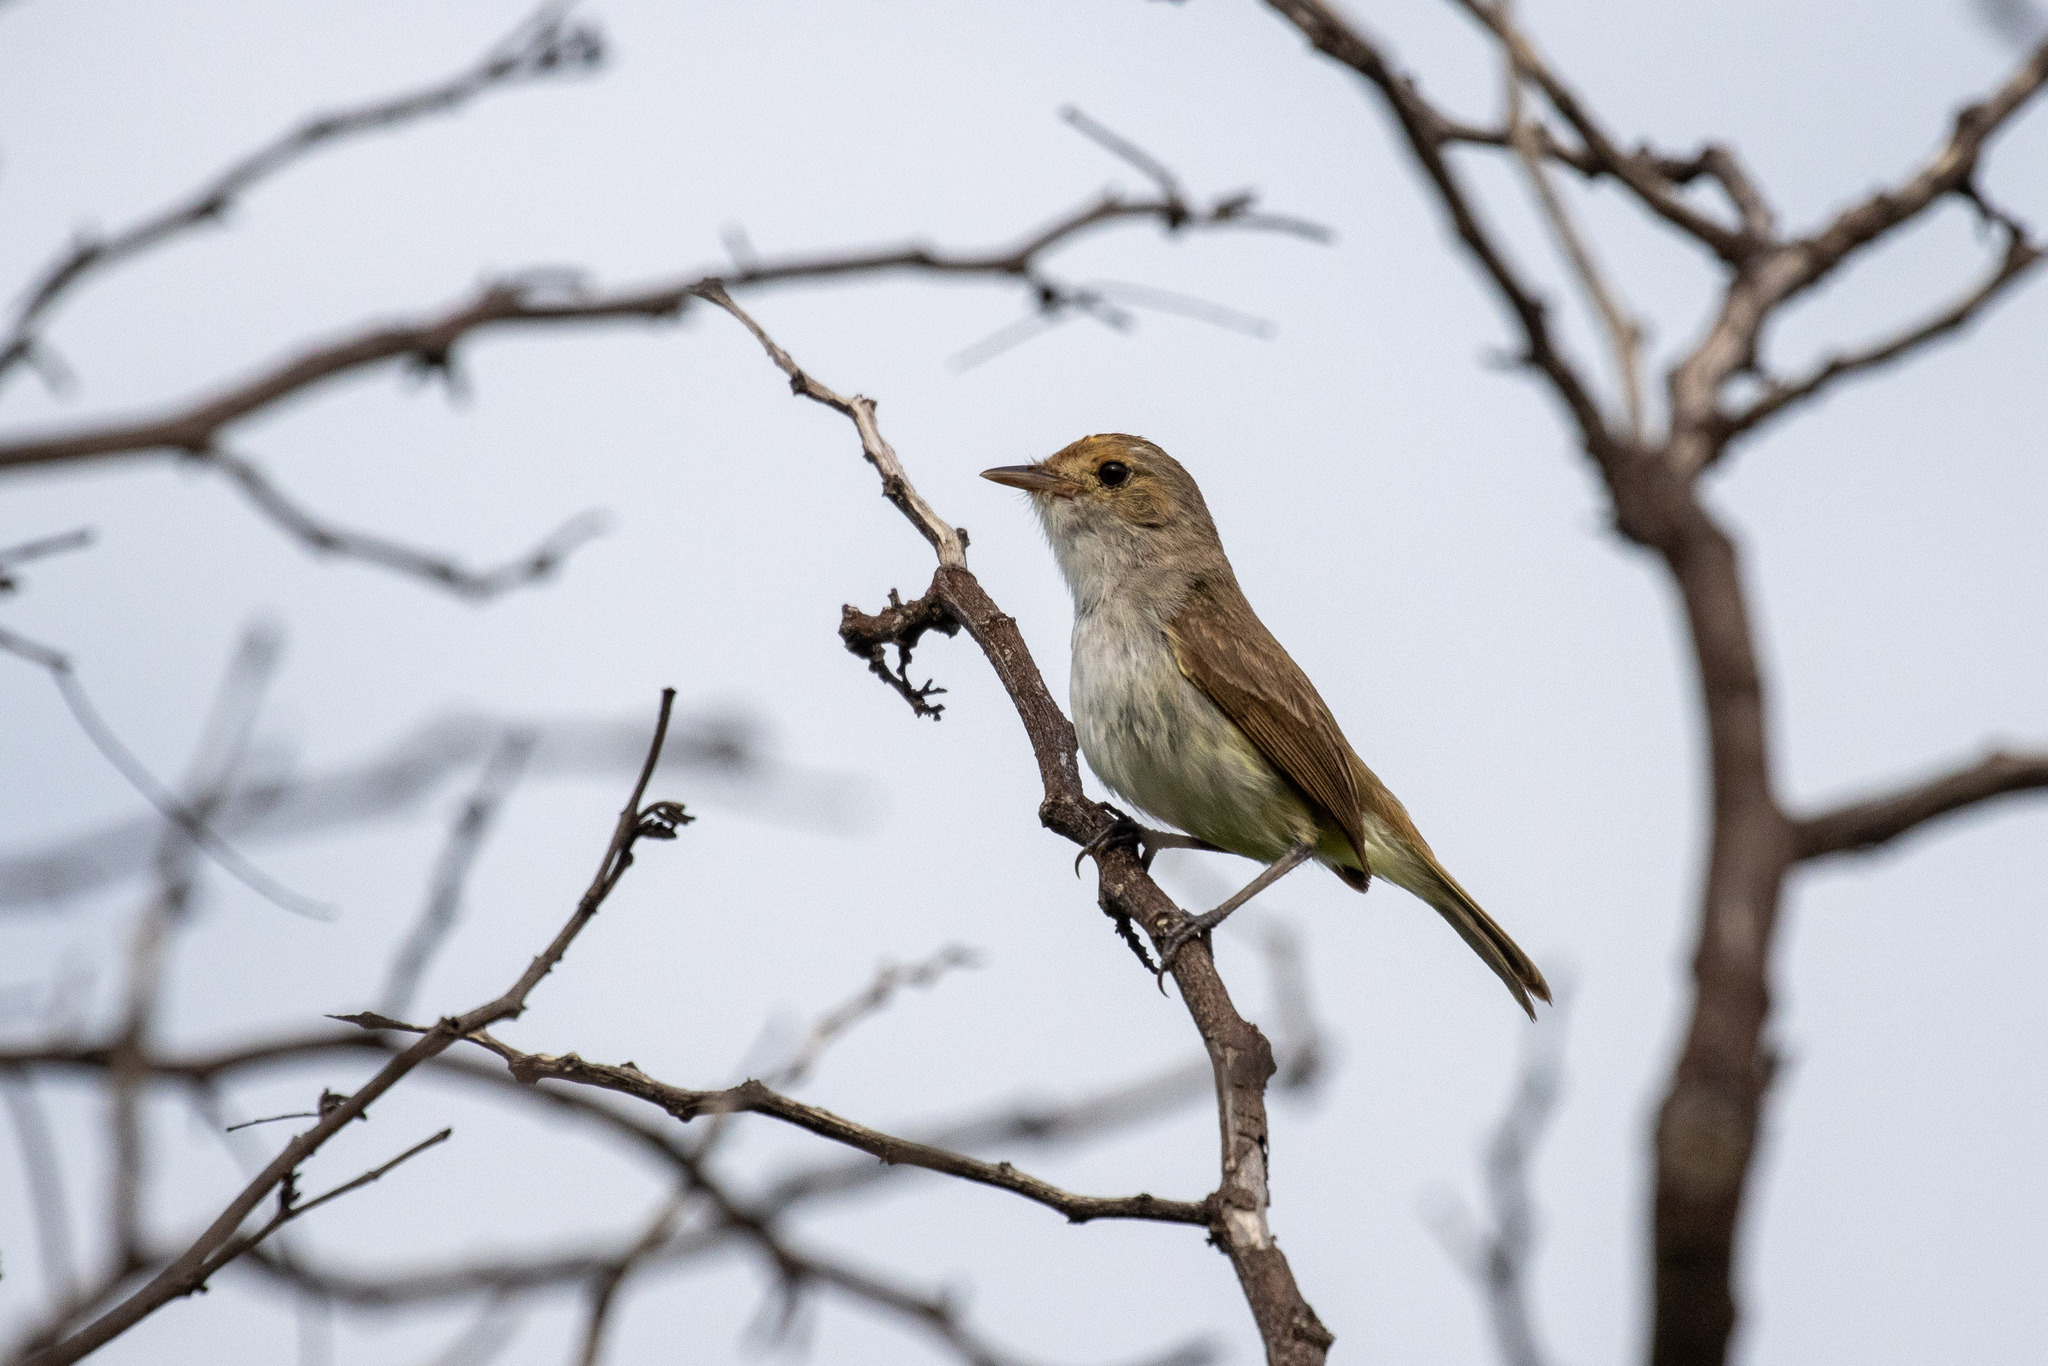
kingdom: Animalia
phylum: Chordata
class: Aves
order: Passeriformes
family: Tyrannidae
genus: Euscarthmus
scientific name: Euscarthmus meloryphus
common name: Tawny-crowned pygmy tyrant
